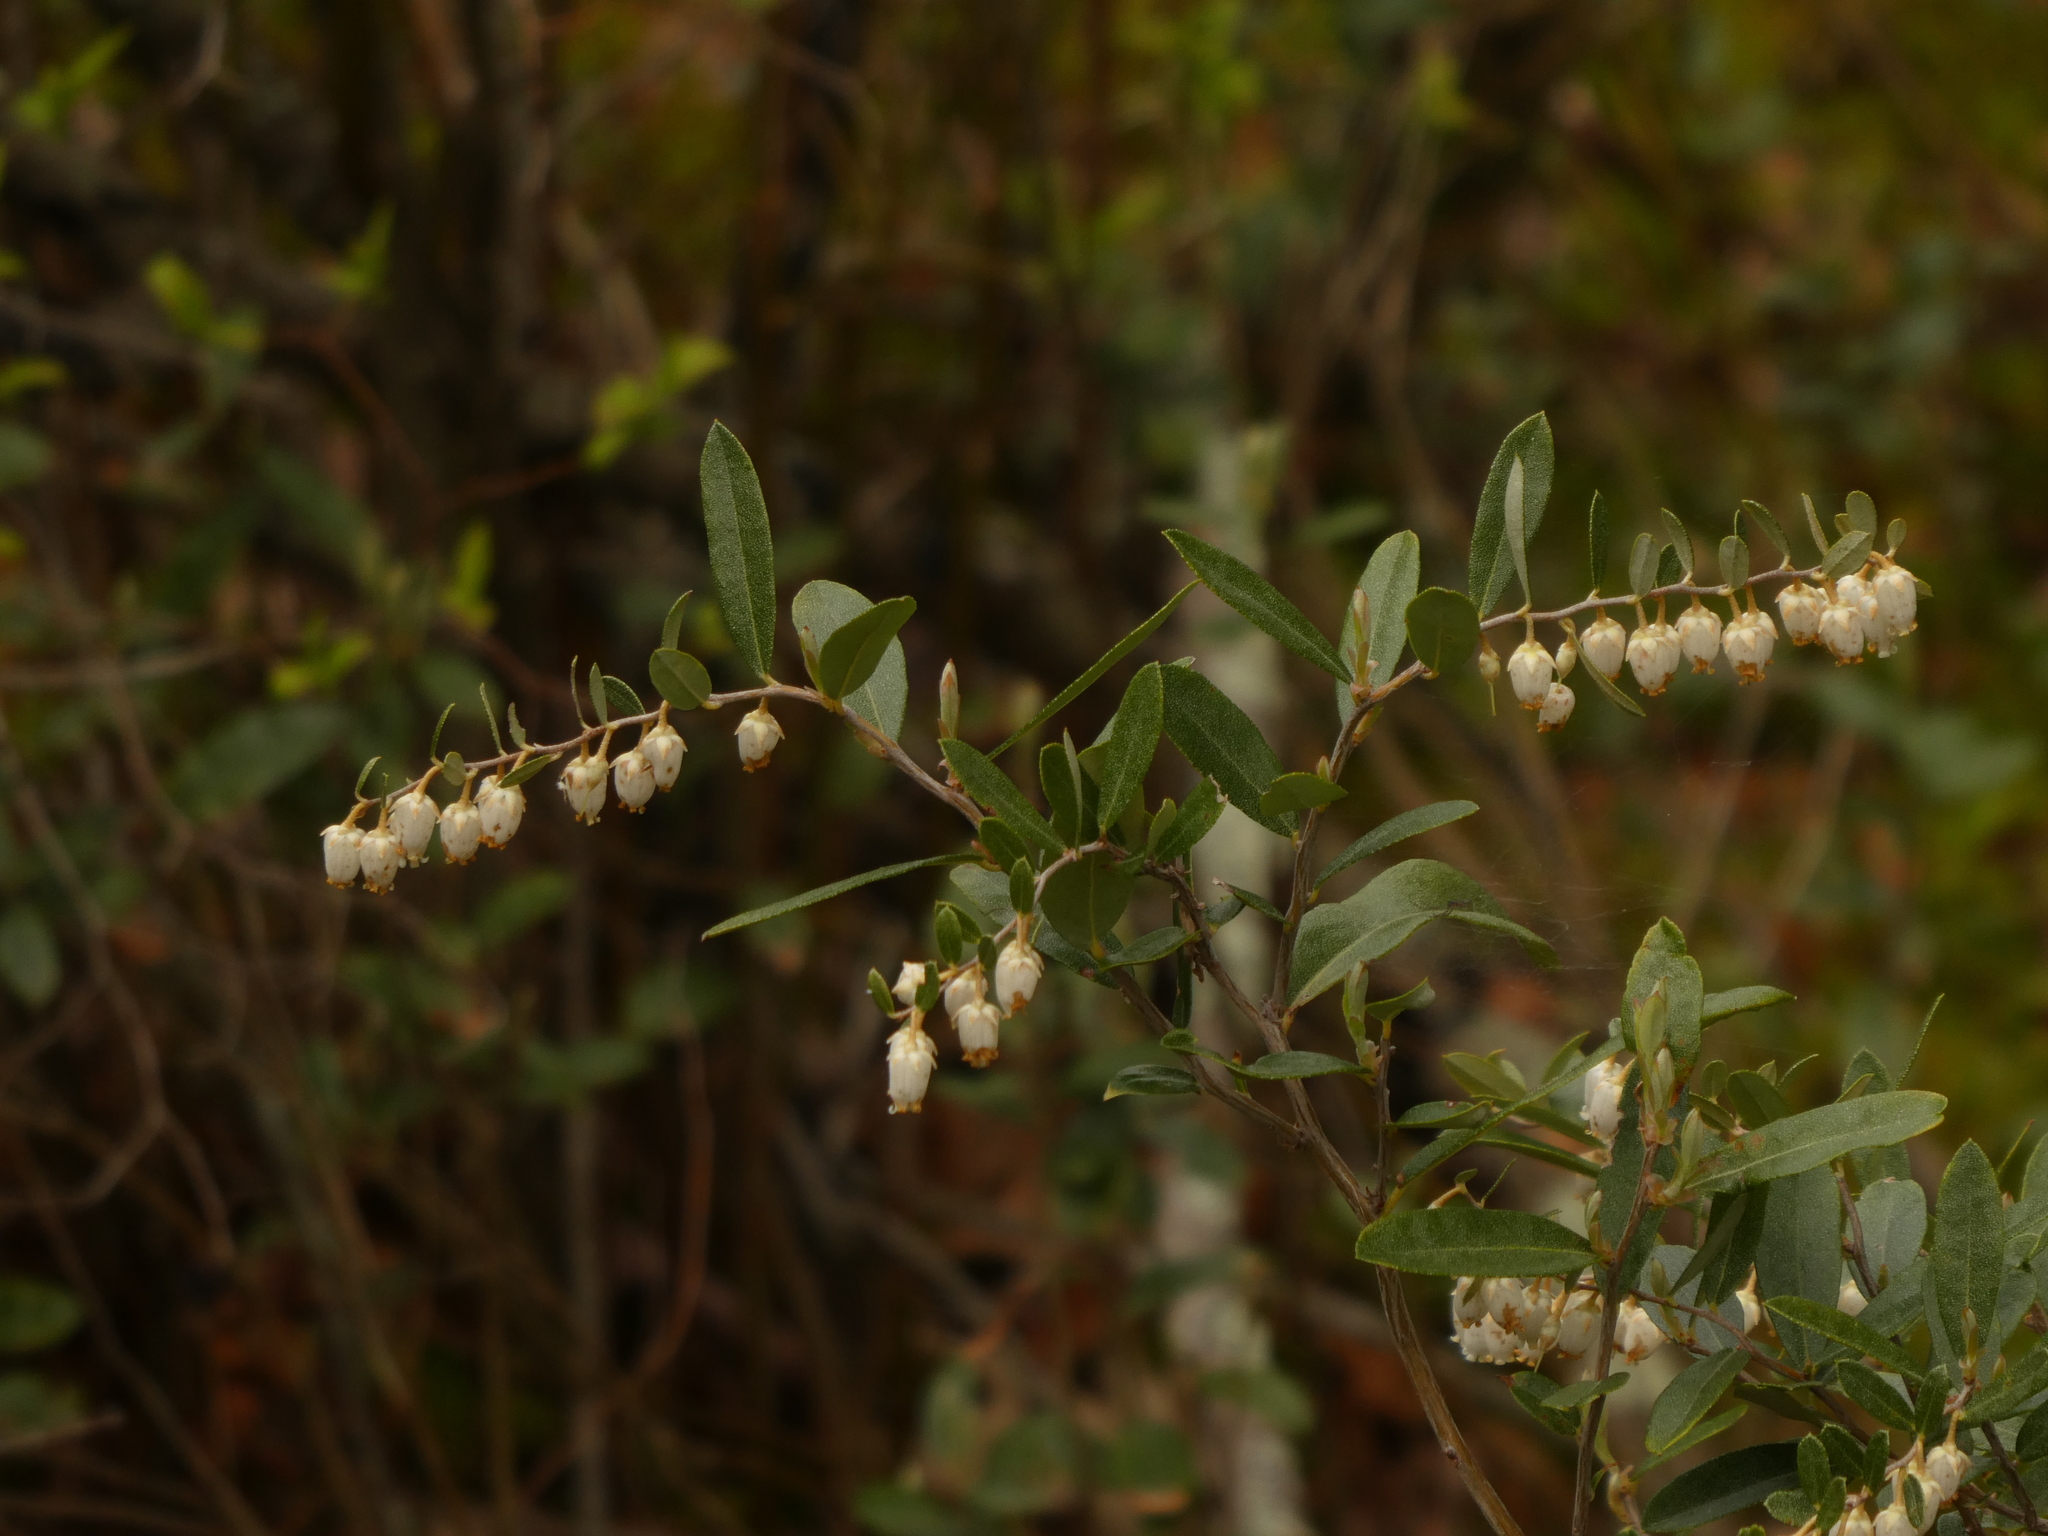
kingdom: Plantae
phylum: Tracheophyta
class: Magnoliopsida
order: Ericales
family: Ericaceae
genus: Chamaedaphne
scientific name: Chamaedaphne calyculata
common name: Leatherleaf
